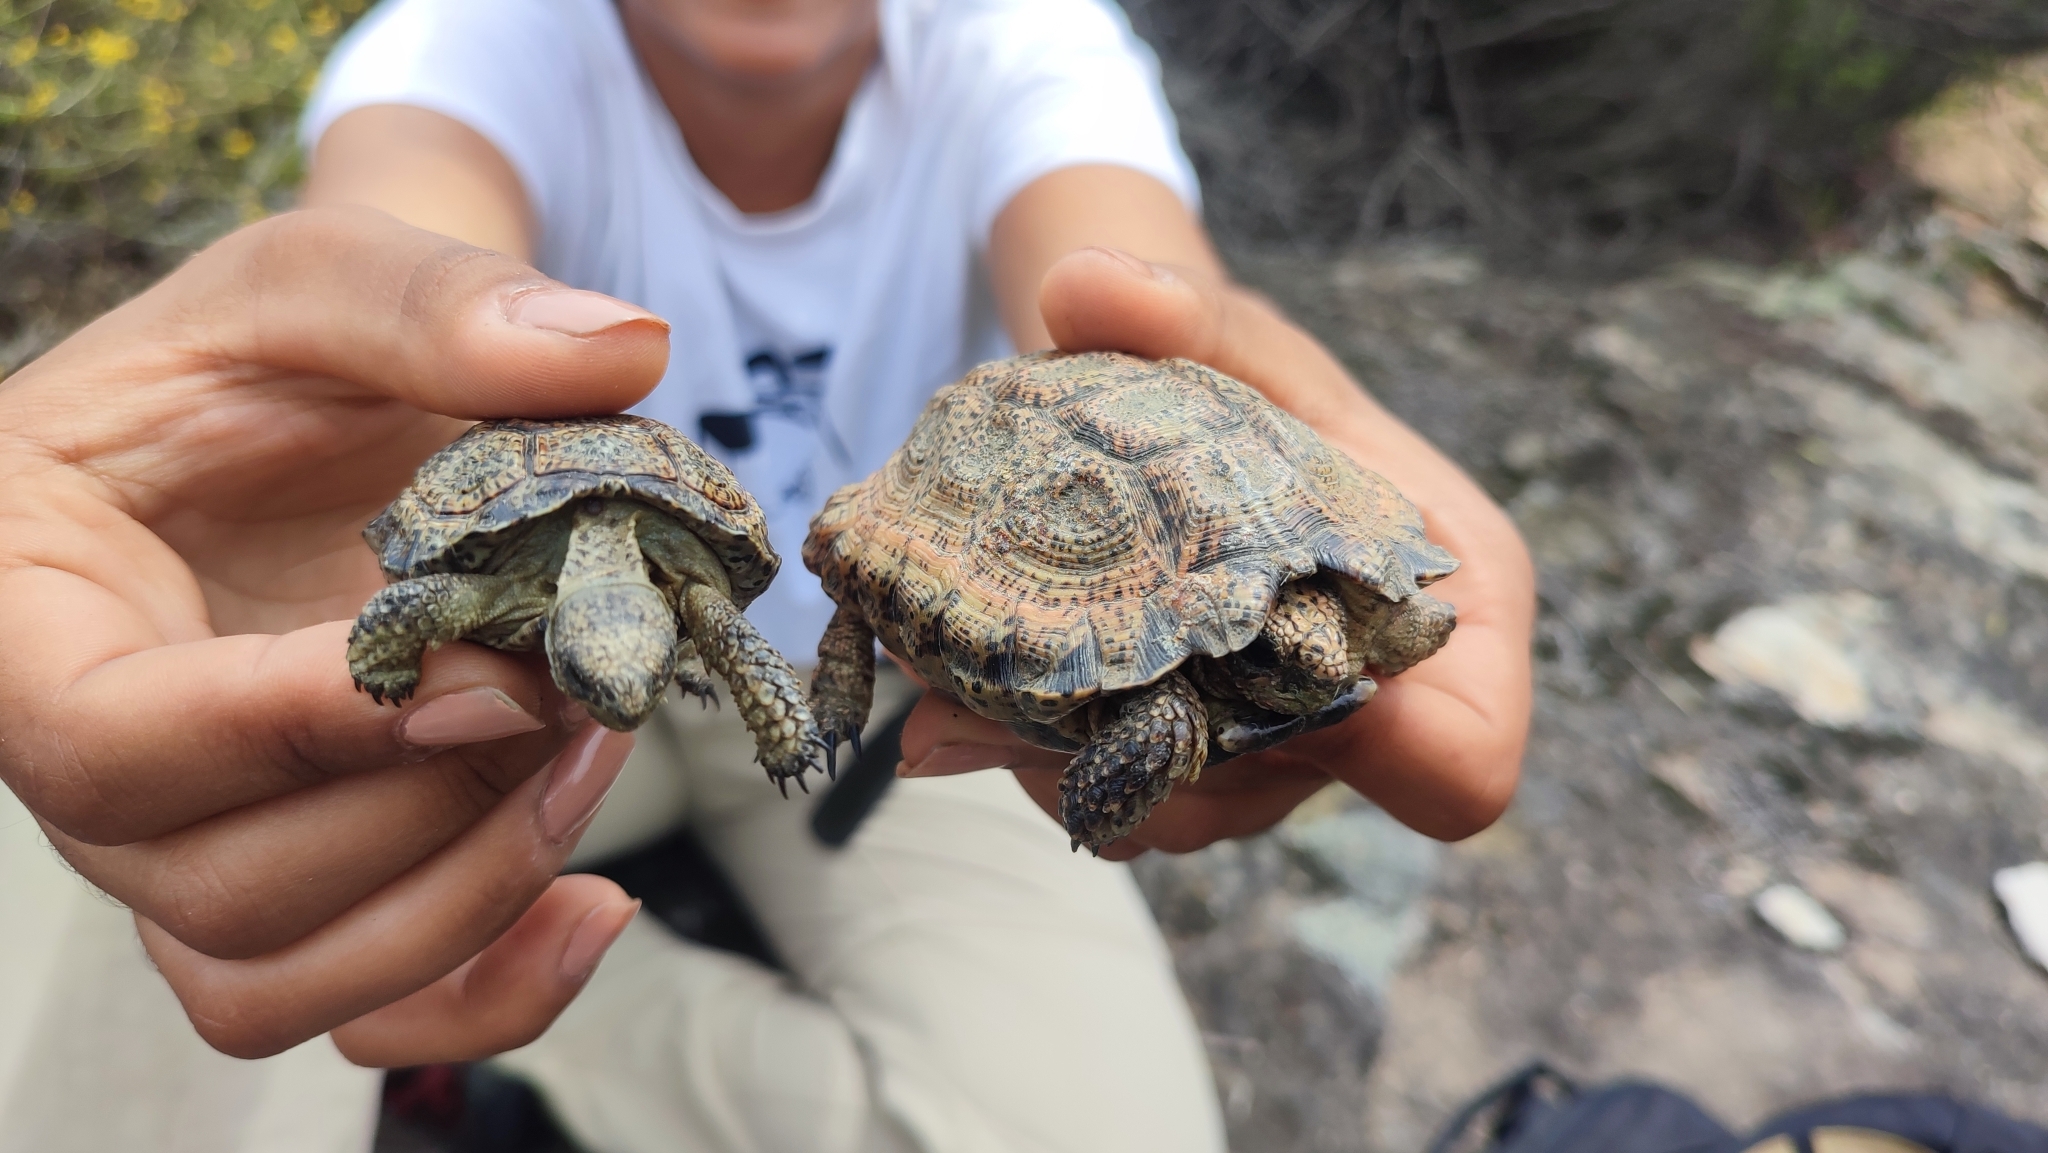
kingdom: Animalia
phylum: Chordata
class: Testudines
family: Testudinidae
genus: Chersobius
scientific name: Chersobius signatus
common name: Speckled cape tortoise
